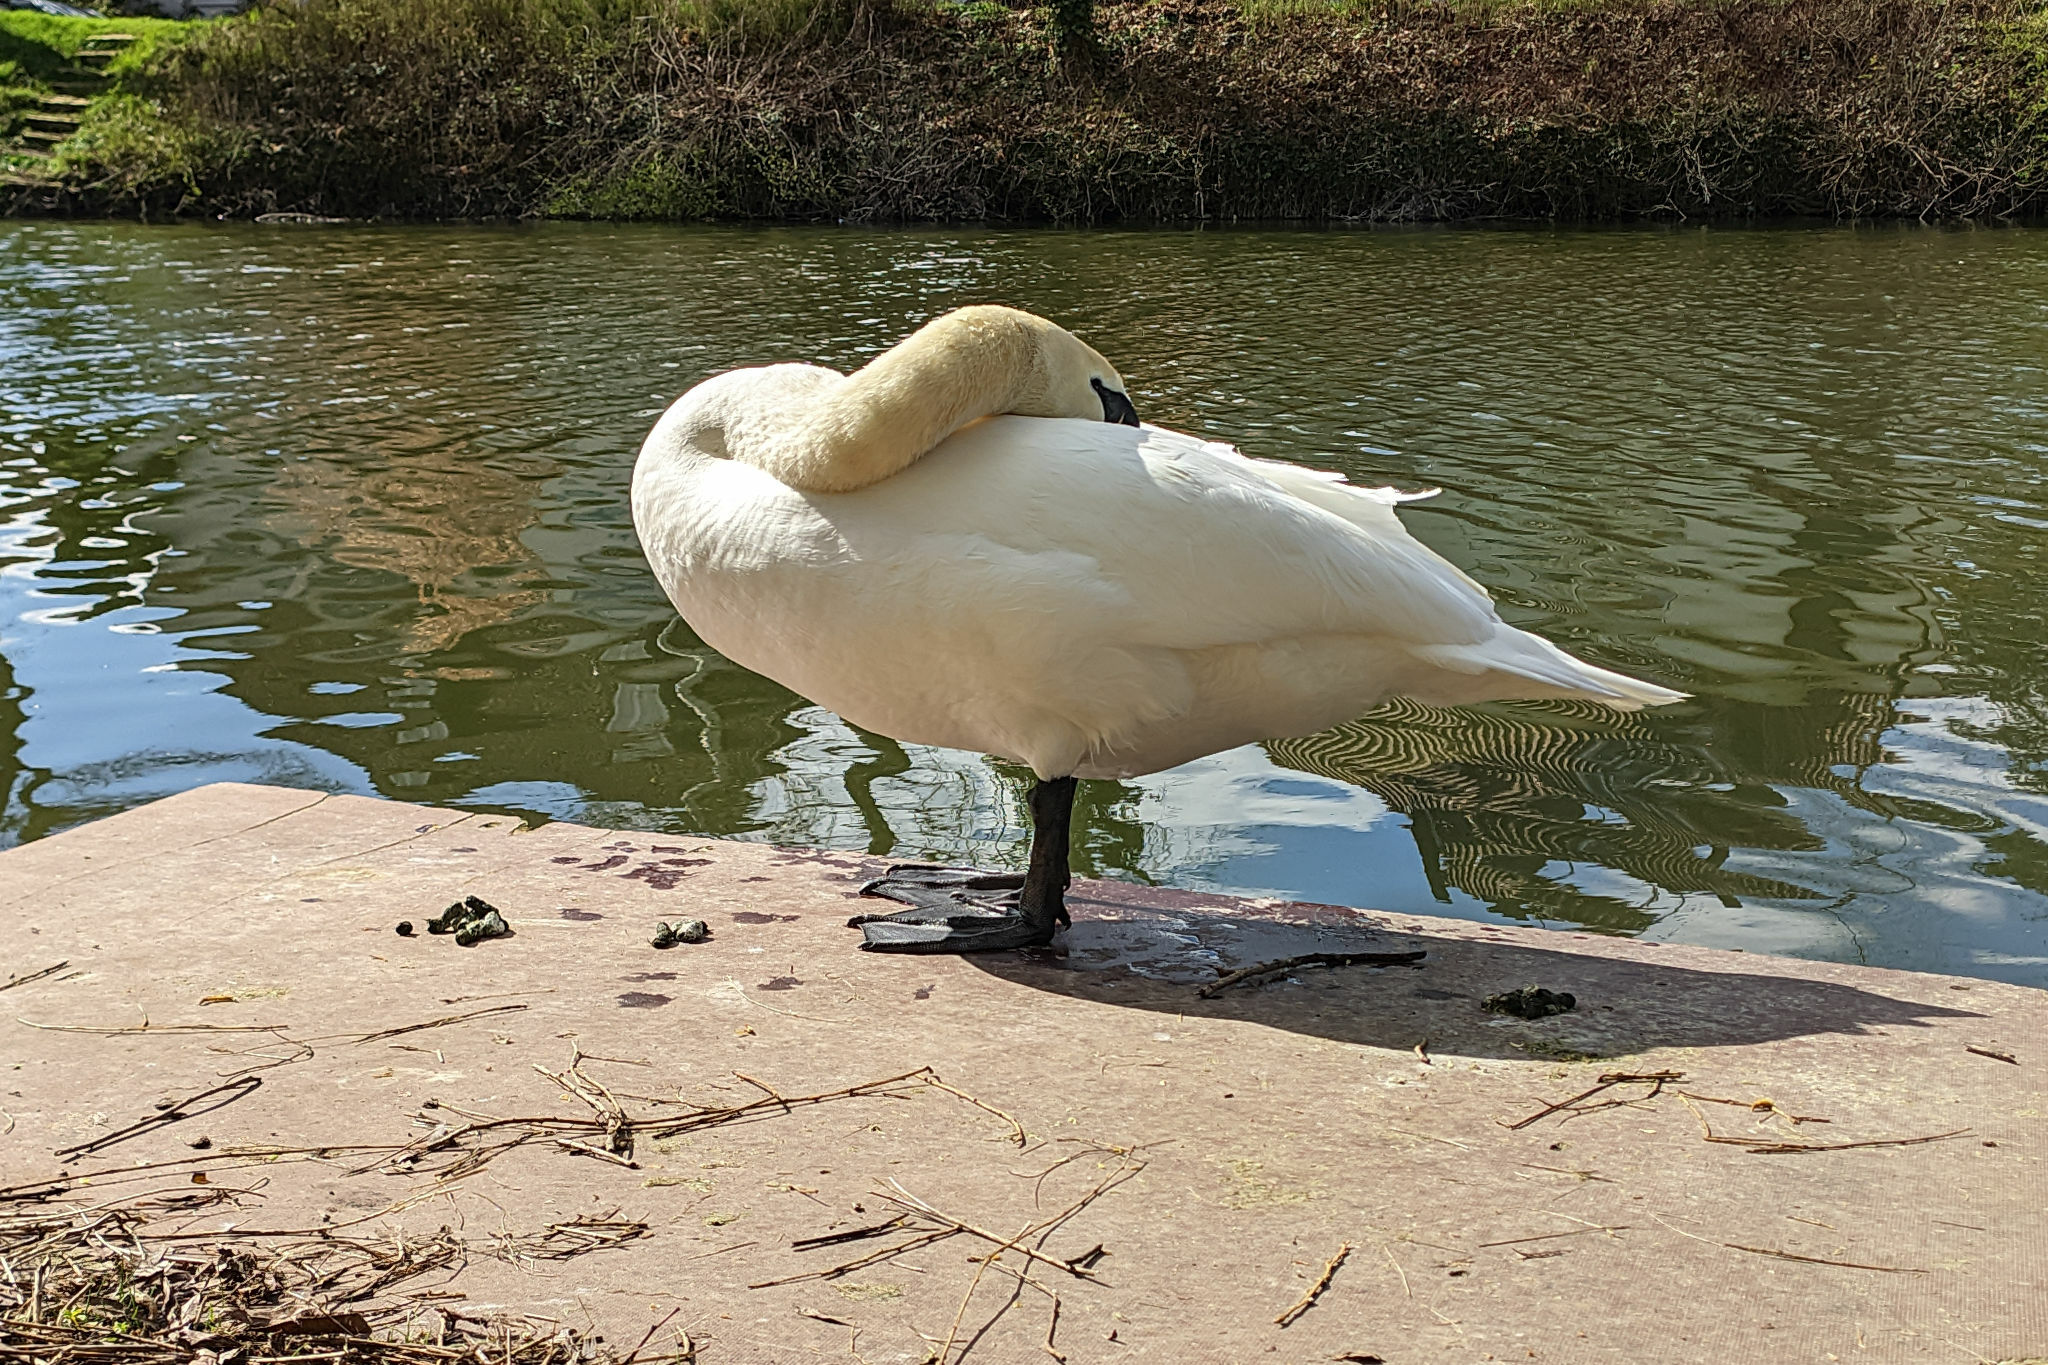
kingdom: Animalia
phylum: Chordata
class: Aves
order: Anseriformes
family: Anatidae
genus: Cygnus
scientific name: Cygnus olor
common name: Mute swan
